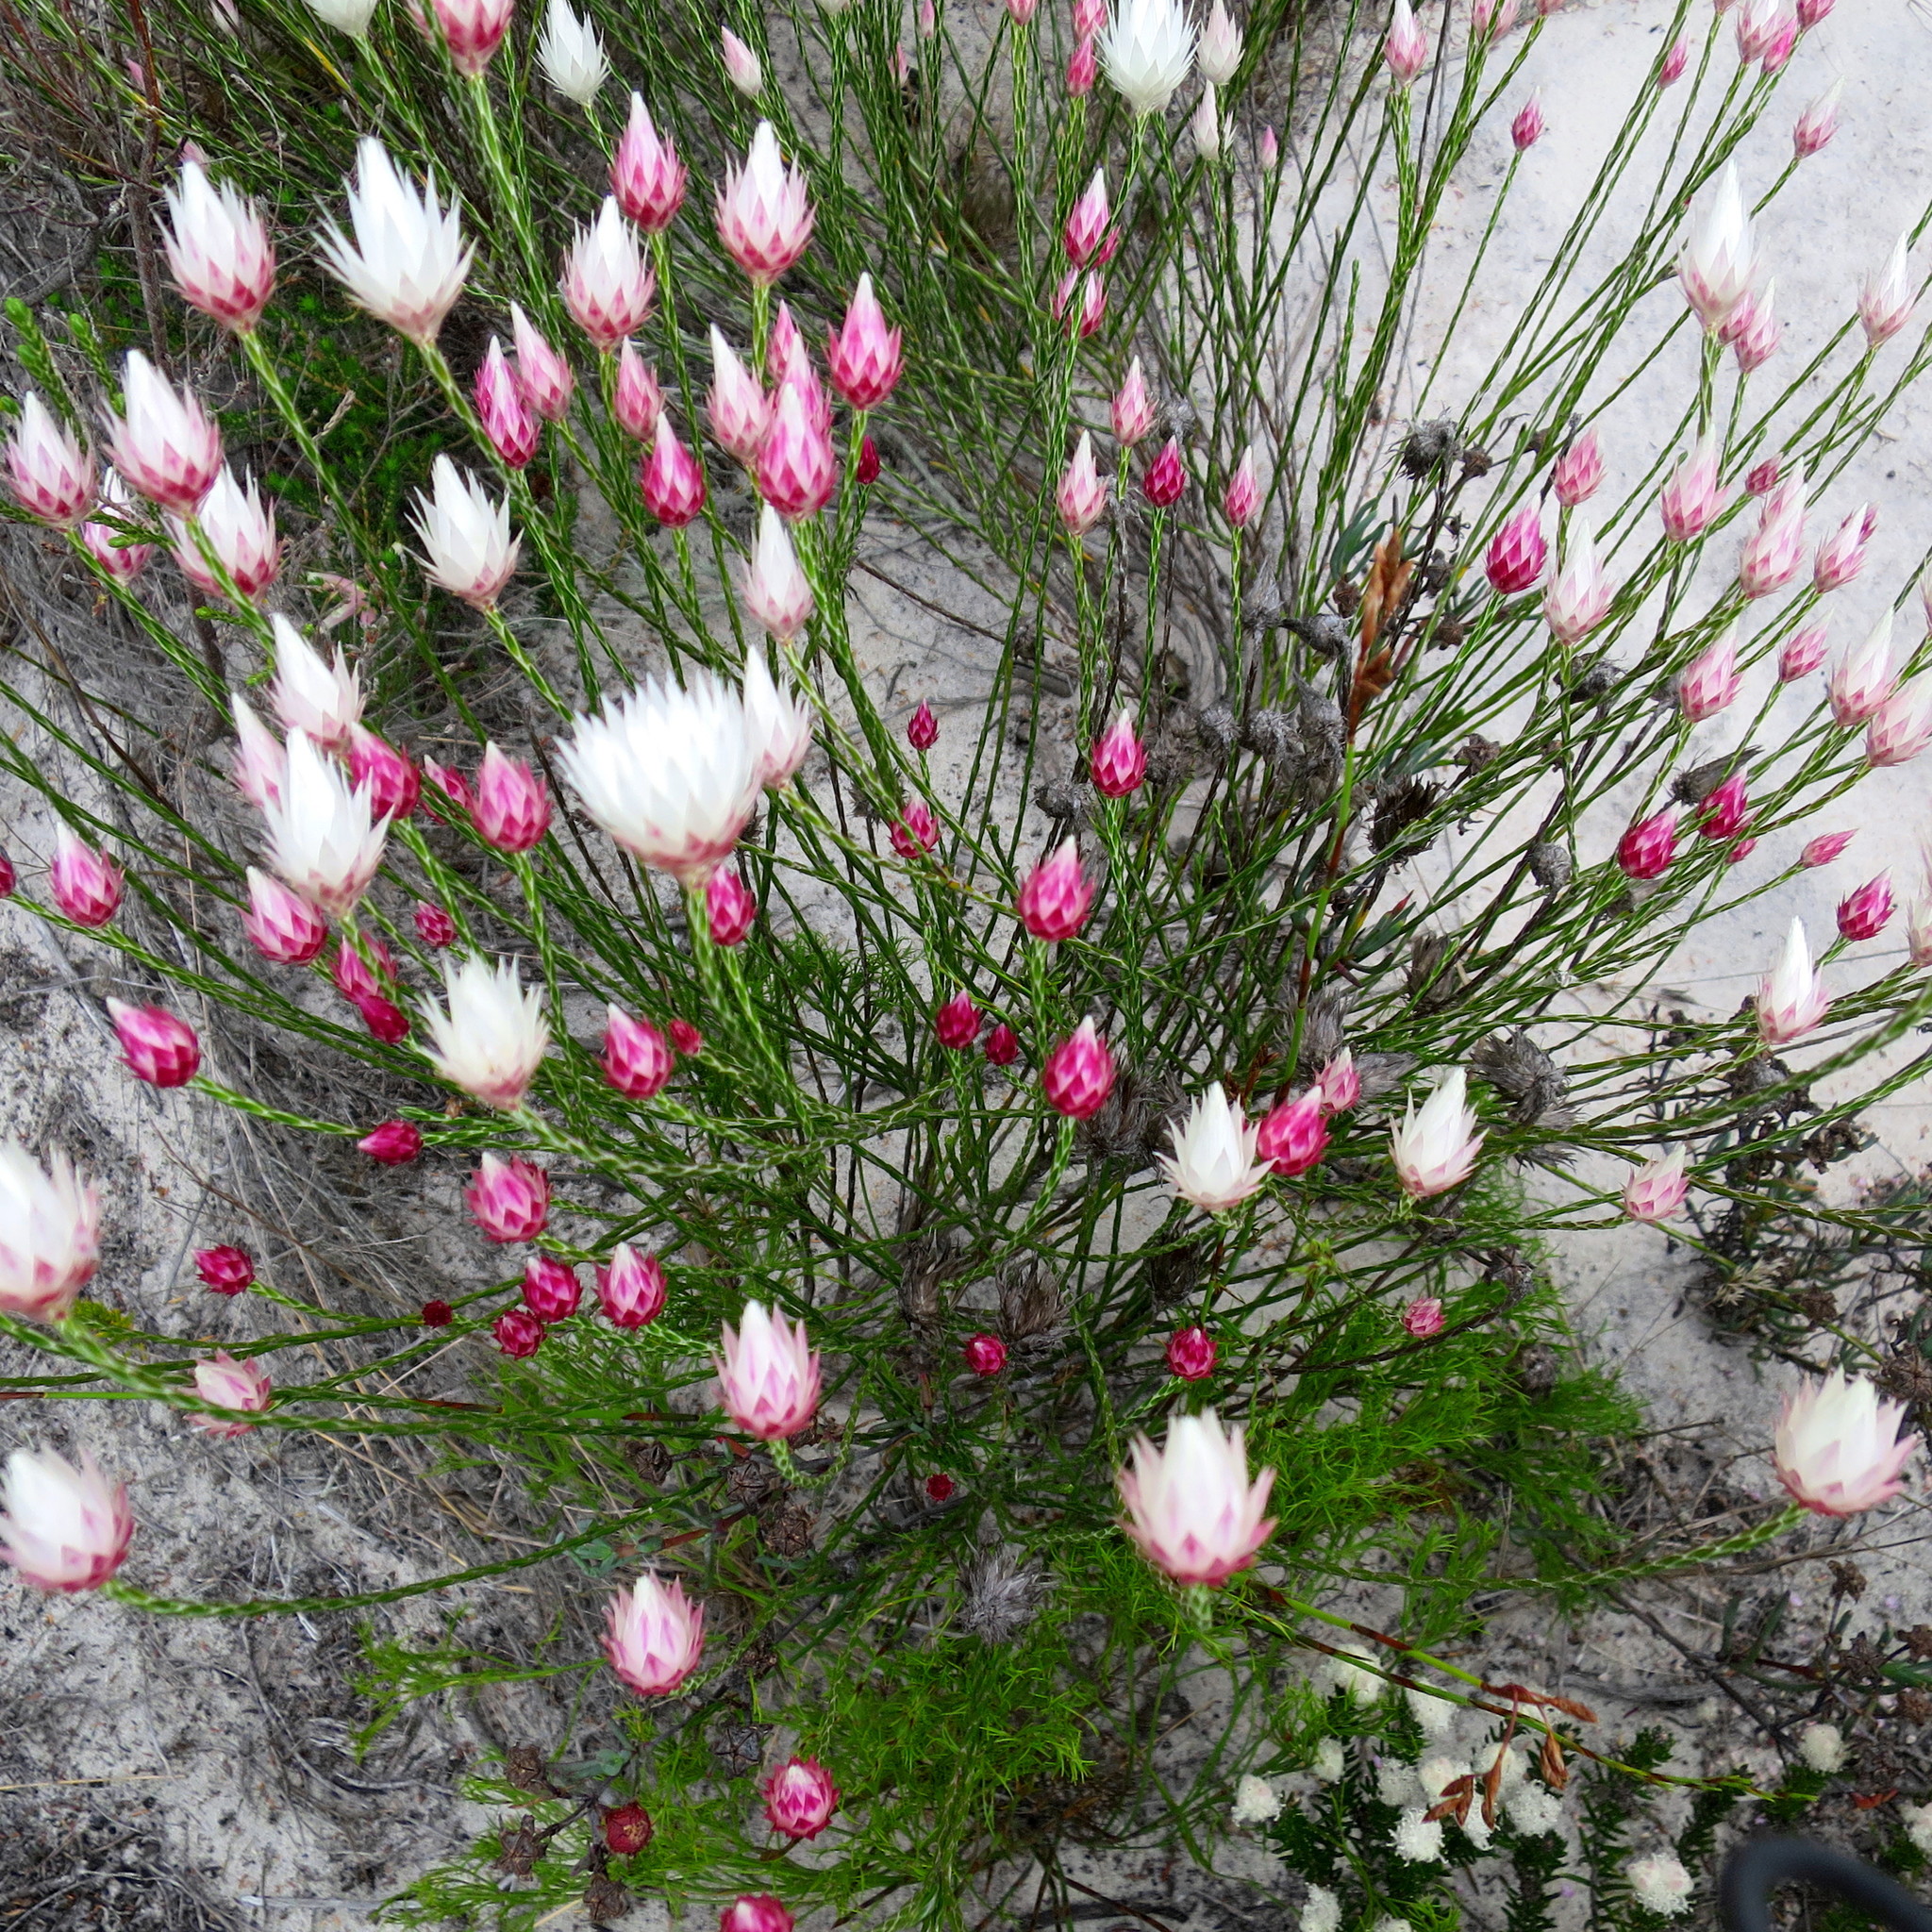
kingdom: Plantae
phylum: Tracheophyta
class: Magnoliopsida
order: Asterales
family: Asteraceae
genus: Edmondia
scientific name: Edmondia sesamoides
